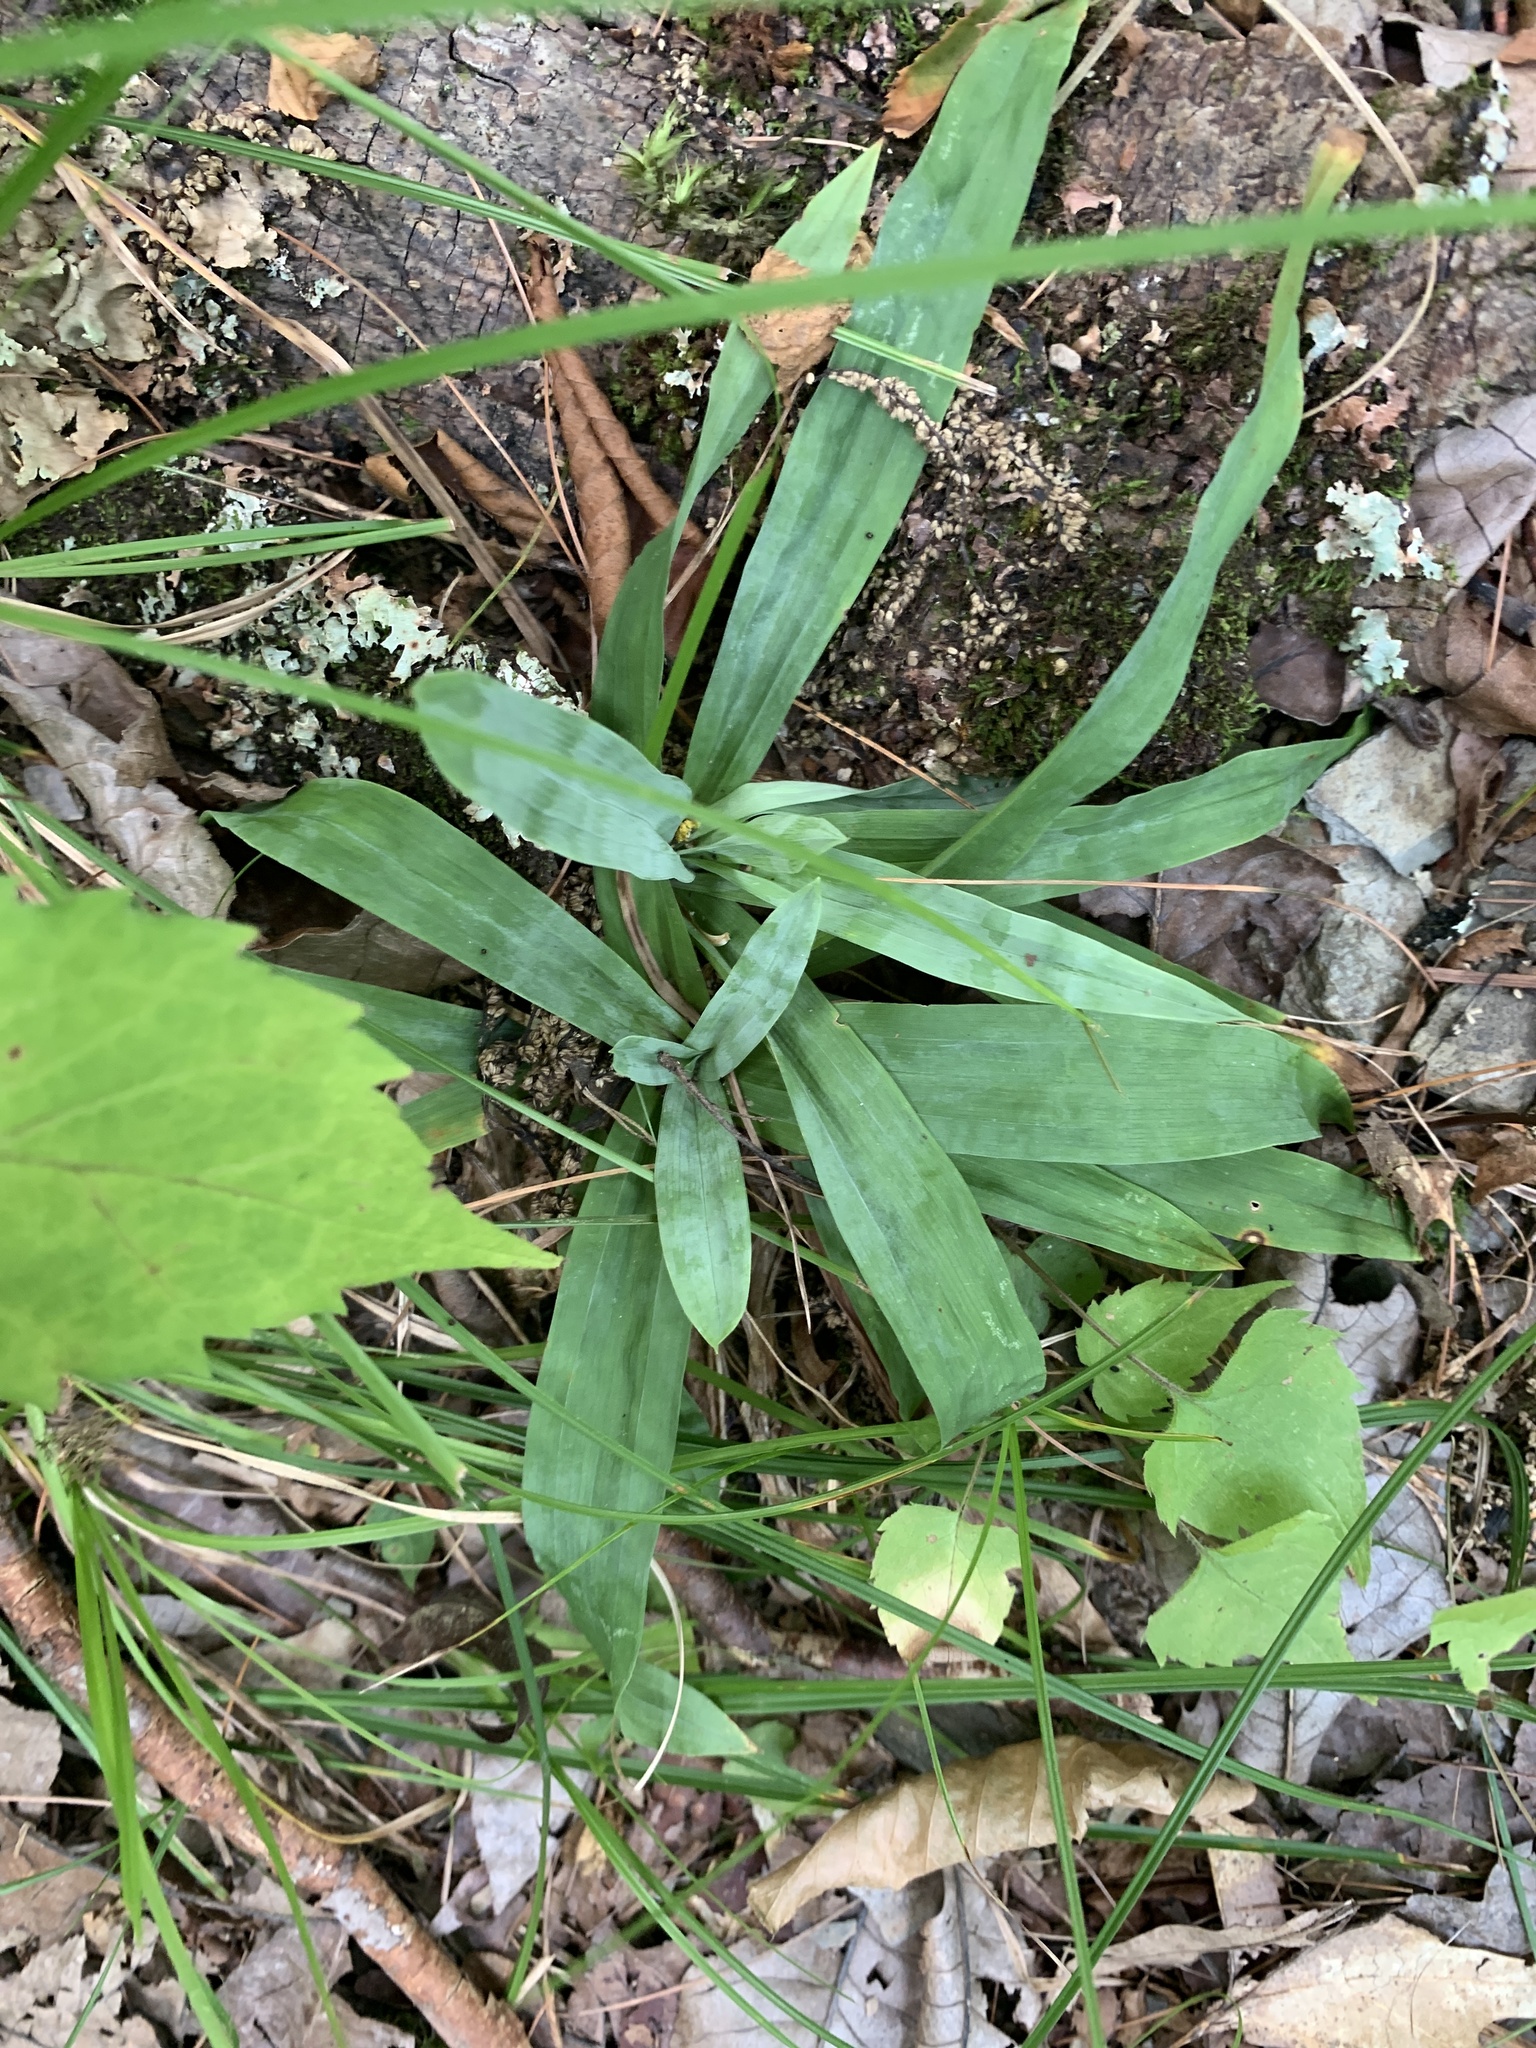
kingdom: Plantae
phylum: Tracheophyta
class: Liliopsida
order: Poales
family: Cyperaceae
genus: Carex
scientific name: Carex platyphylla
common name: Broad-leaved sedge
